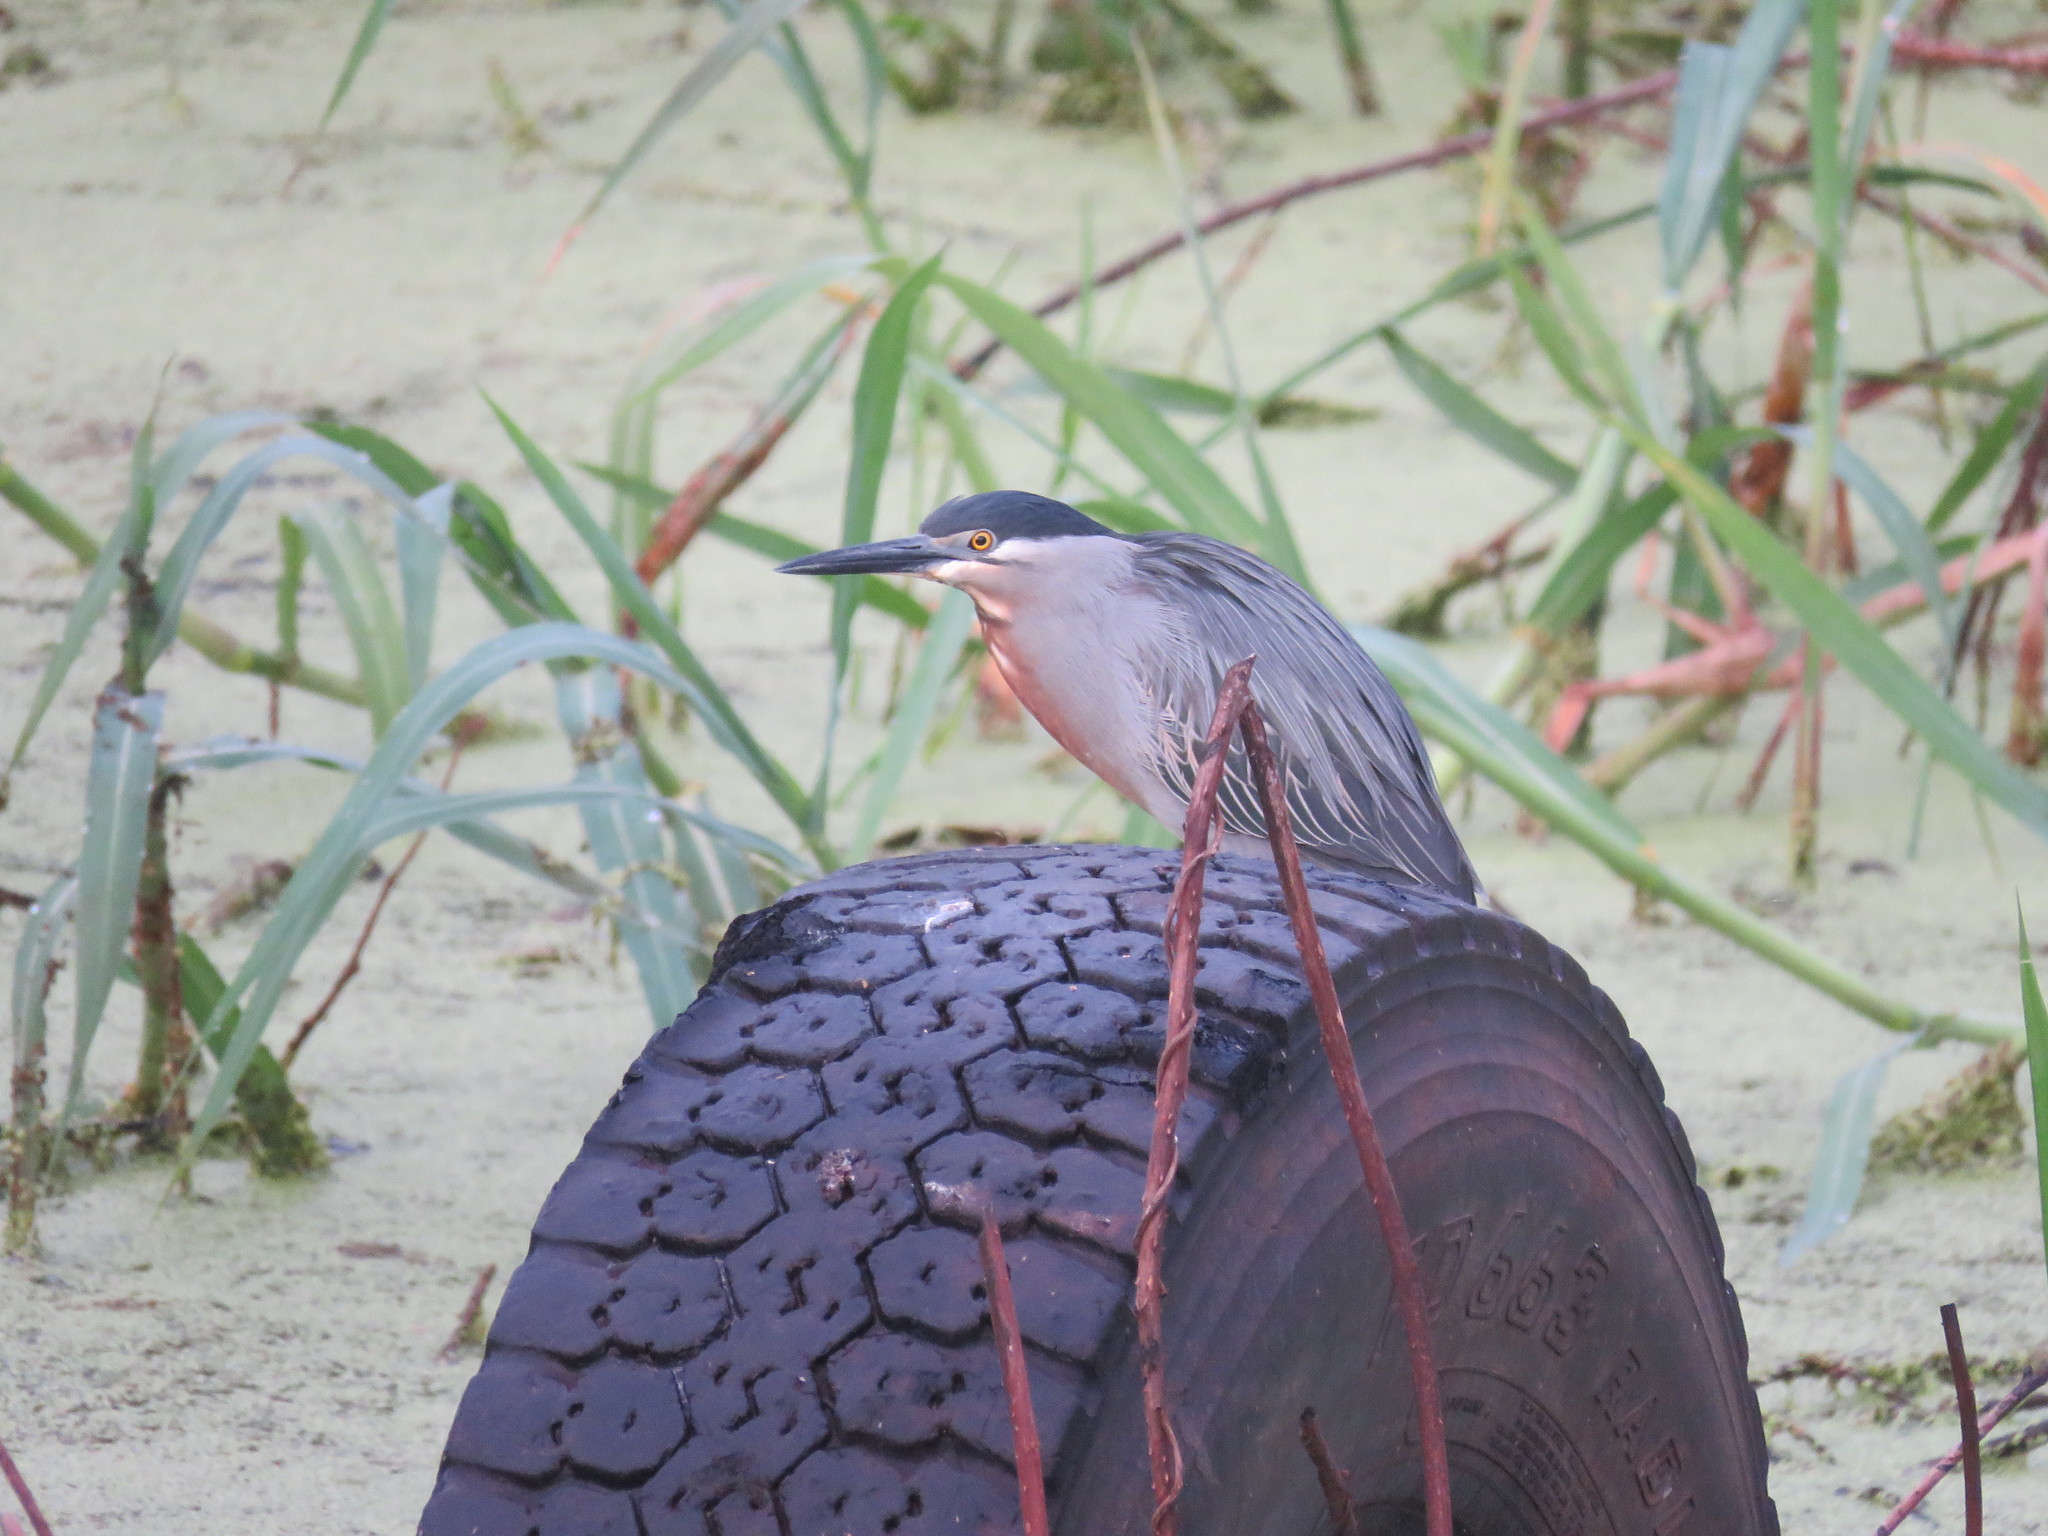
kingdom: Animalia
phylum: Chordata
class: Aves
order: Accipitriformes
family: Accipitridae
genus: Rostrhamus
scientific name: Rostrhamus sociabilis
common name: Snail kite
